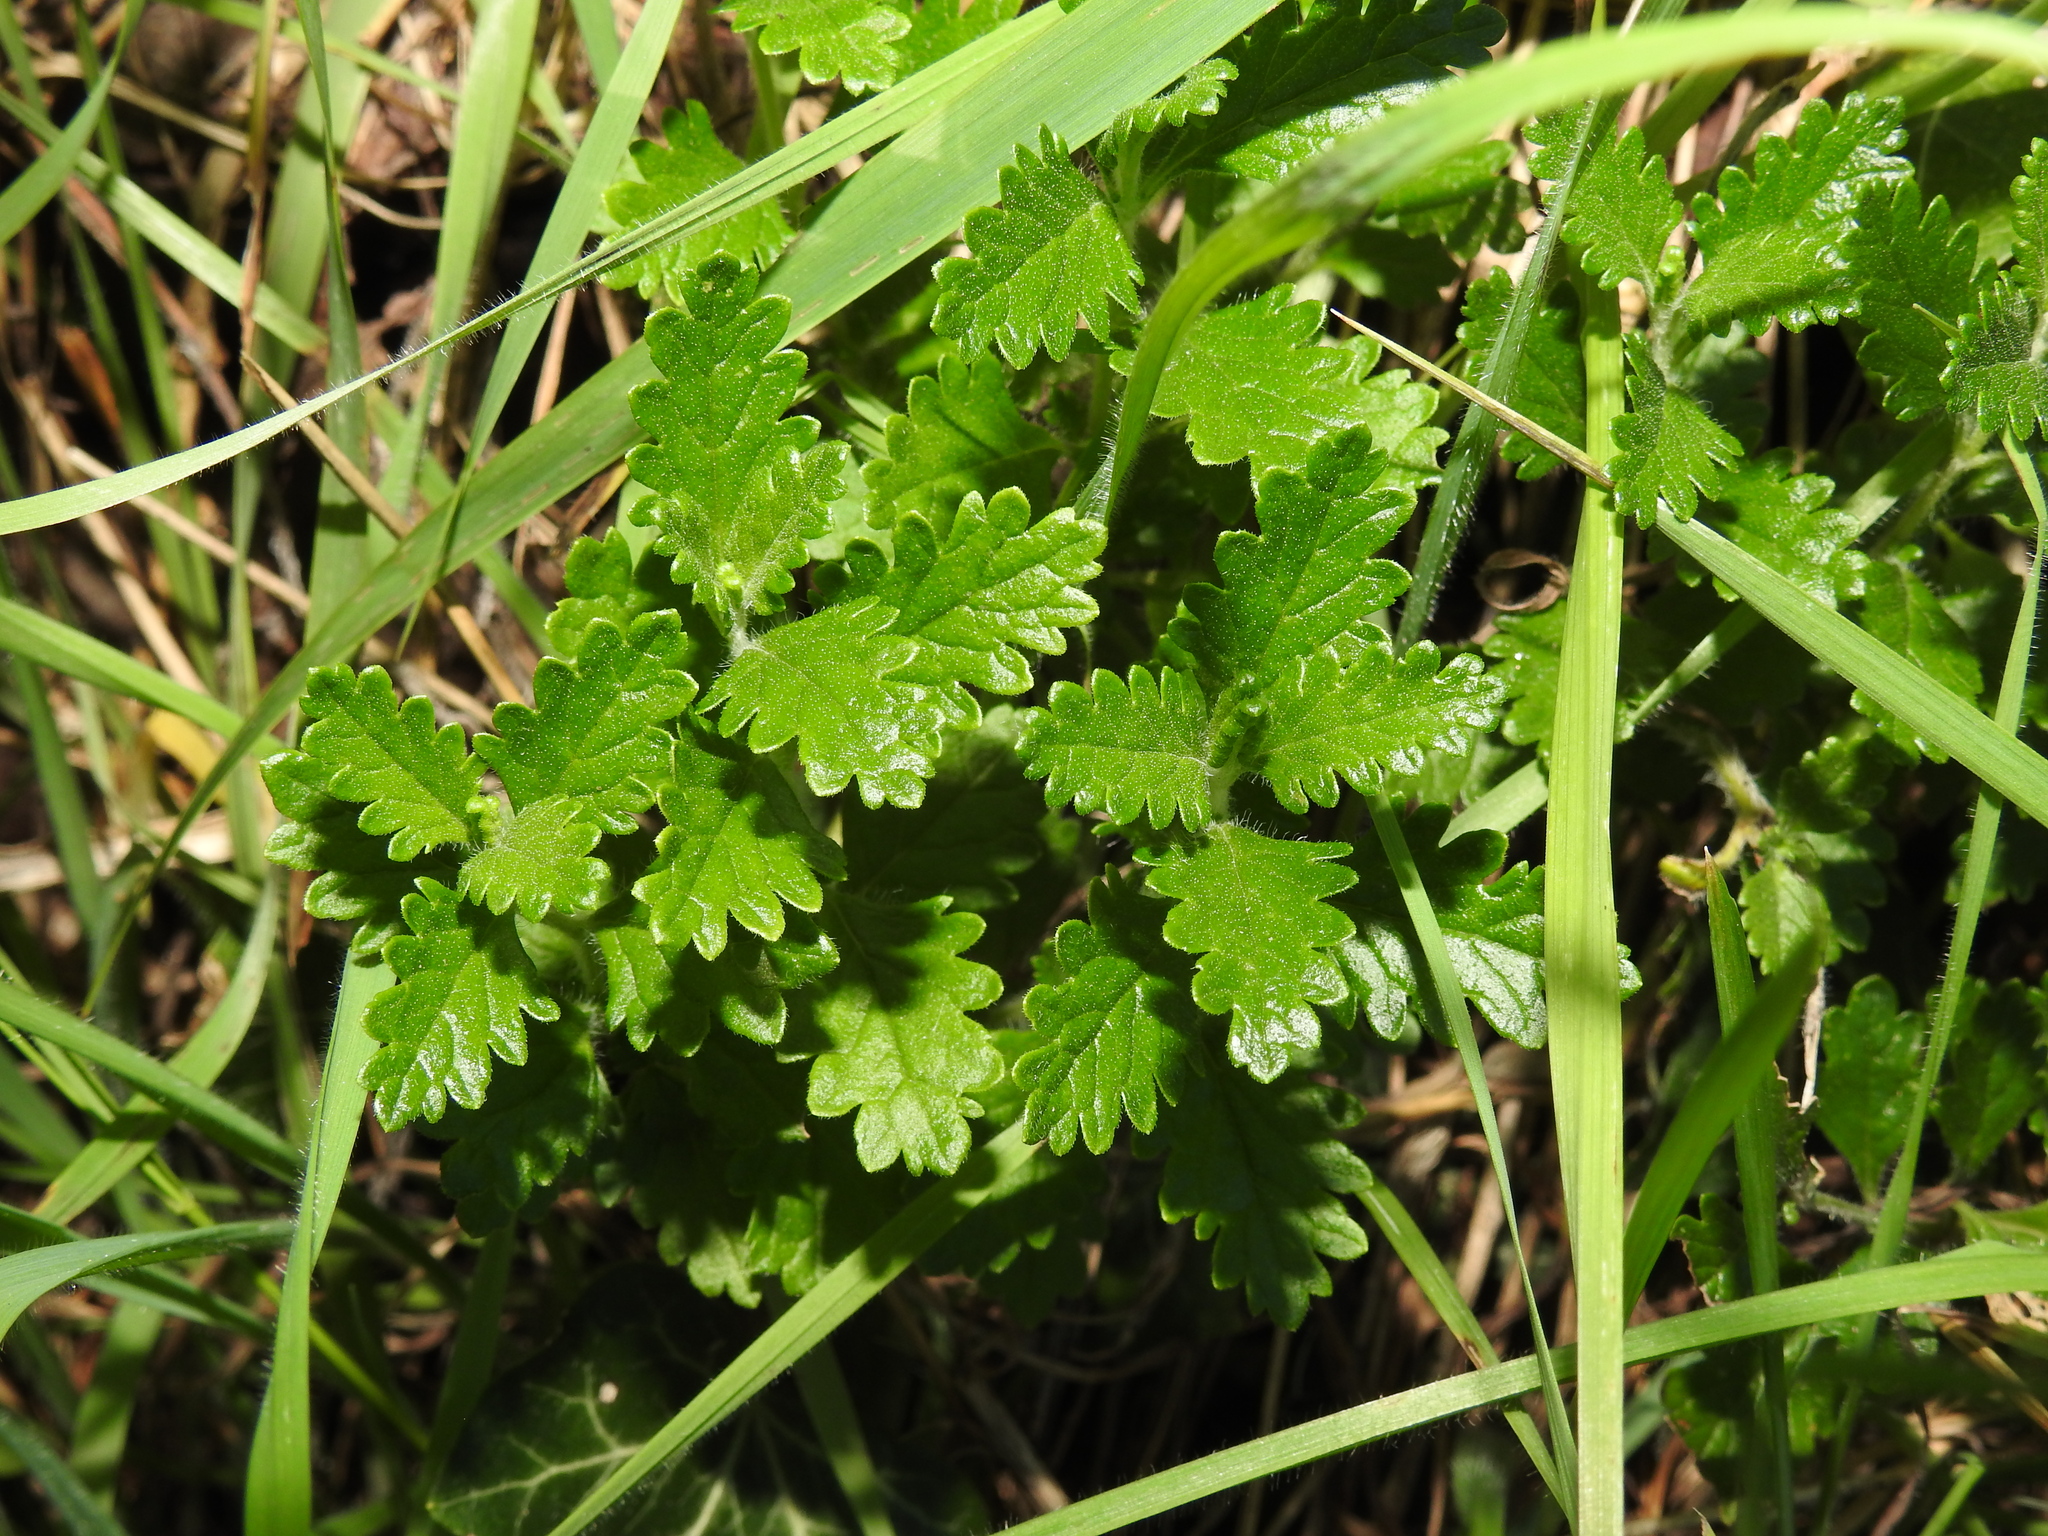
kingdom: Plantae
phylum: Tracheophyta
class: Magnoliopsida
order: Lamiales
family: Lamiaceae
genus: Teucrium
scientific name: Teucrium chamaedrys
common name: Wall germander
